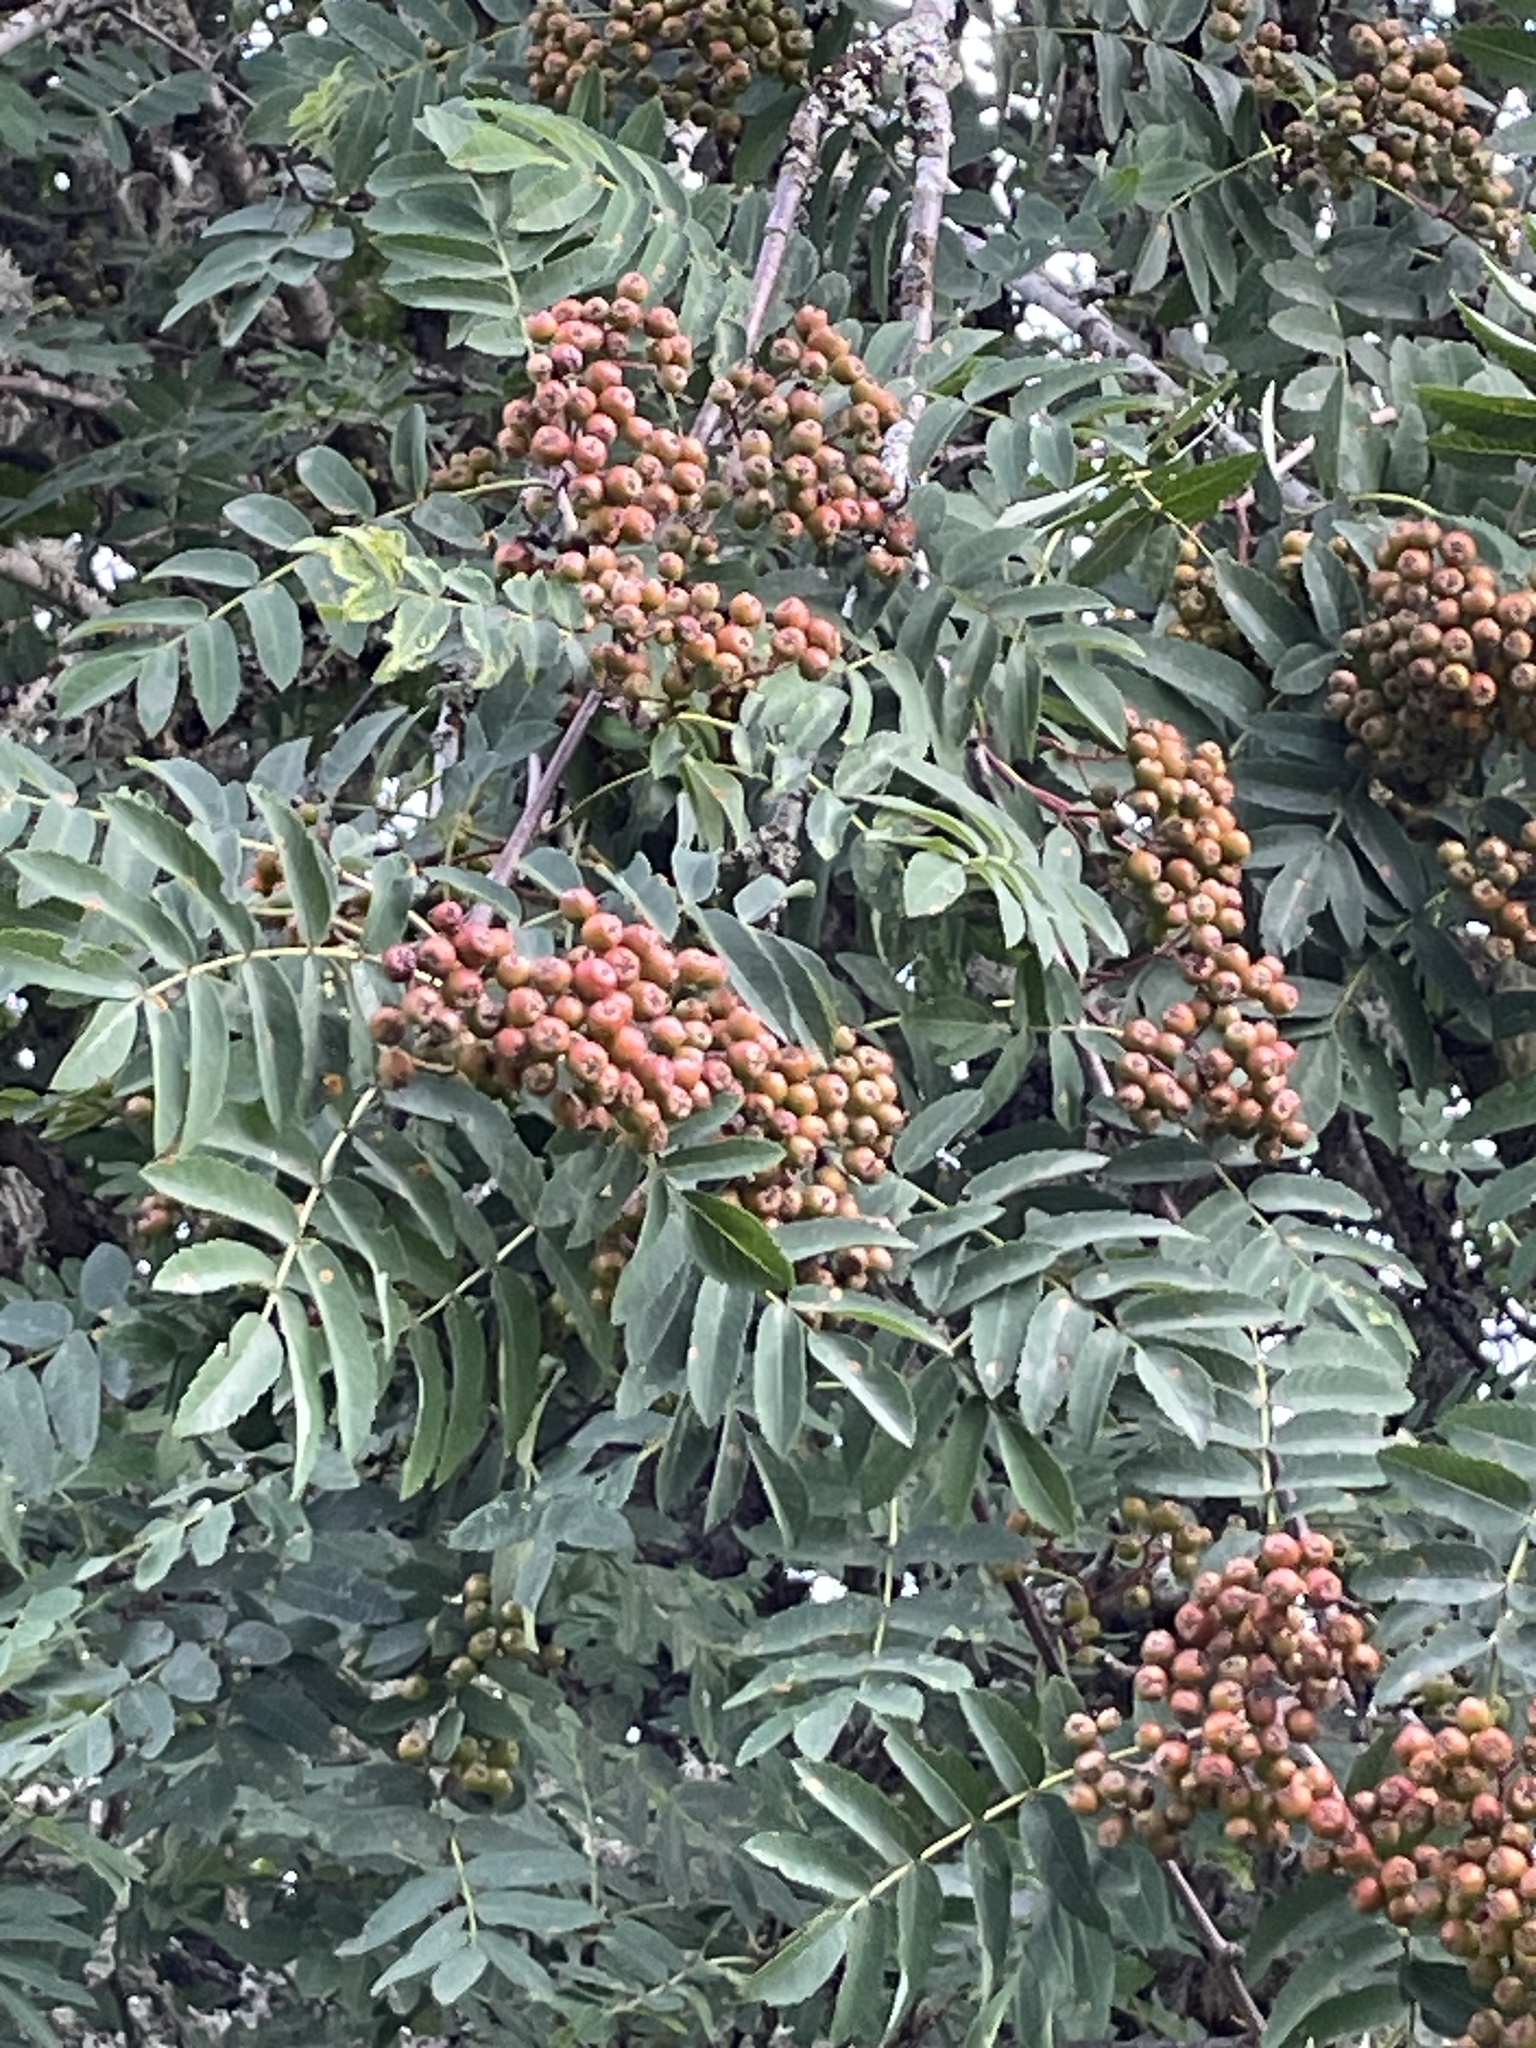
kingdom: Plantae
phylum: Tracheophyta
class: Magnoliopsida
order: Rosales
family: Rosaceae
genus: Sorbus
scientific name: Sorbus aucuparia
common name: Rowan
